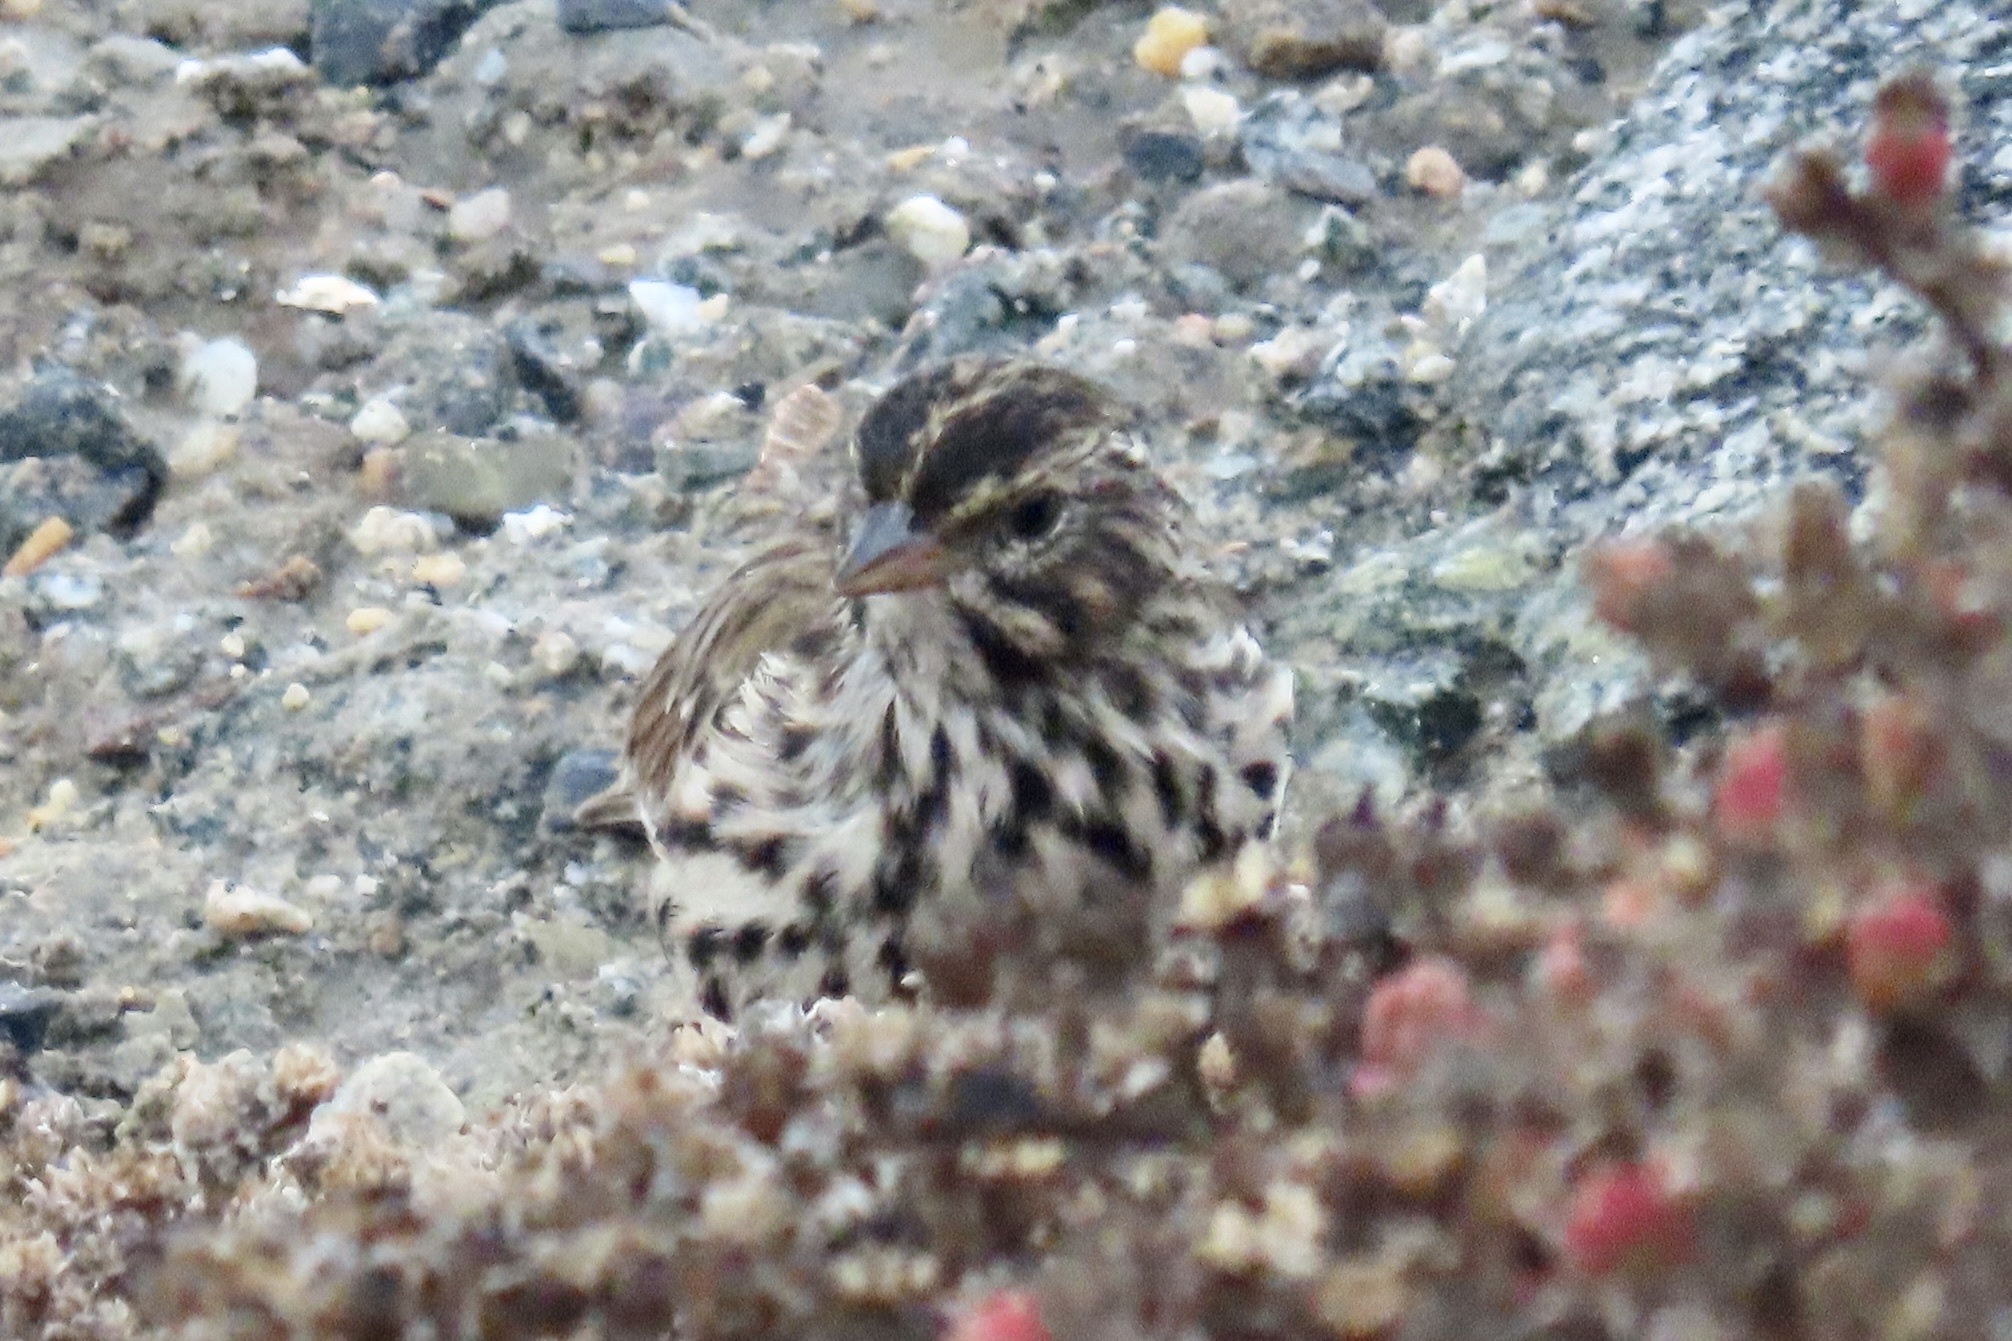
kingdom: Animalia
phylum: Chordata
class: Aves
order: Passeriformes
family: Passerellidae
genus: Passerculus
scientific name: Passerculus sandwichensis
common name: Savannah sparrow
